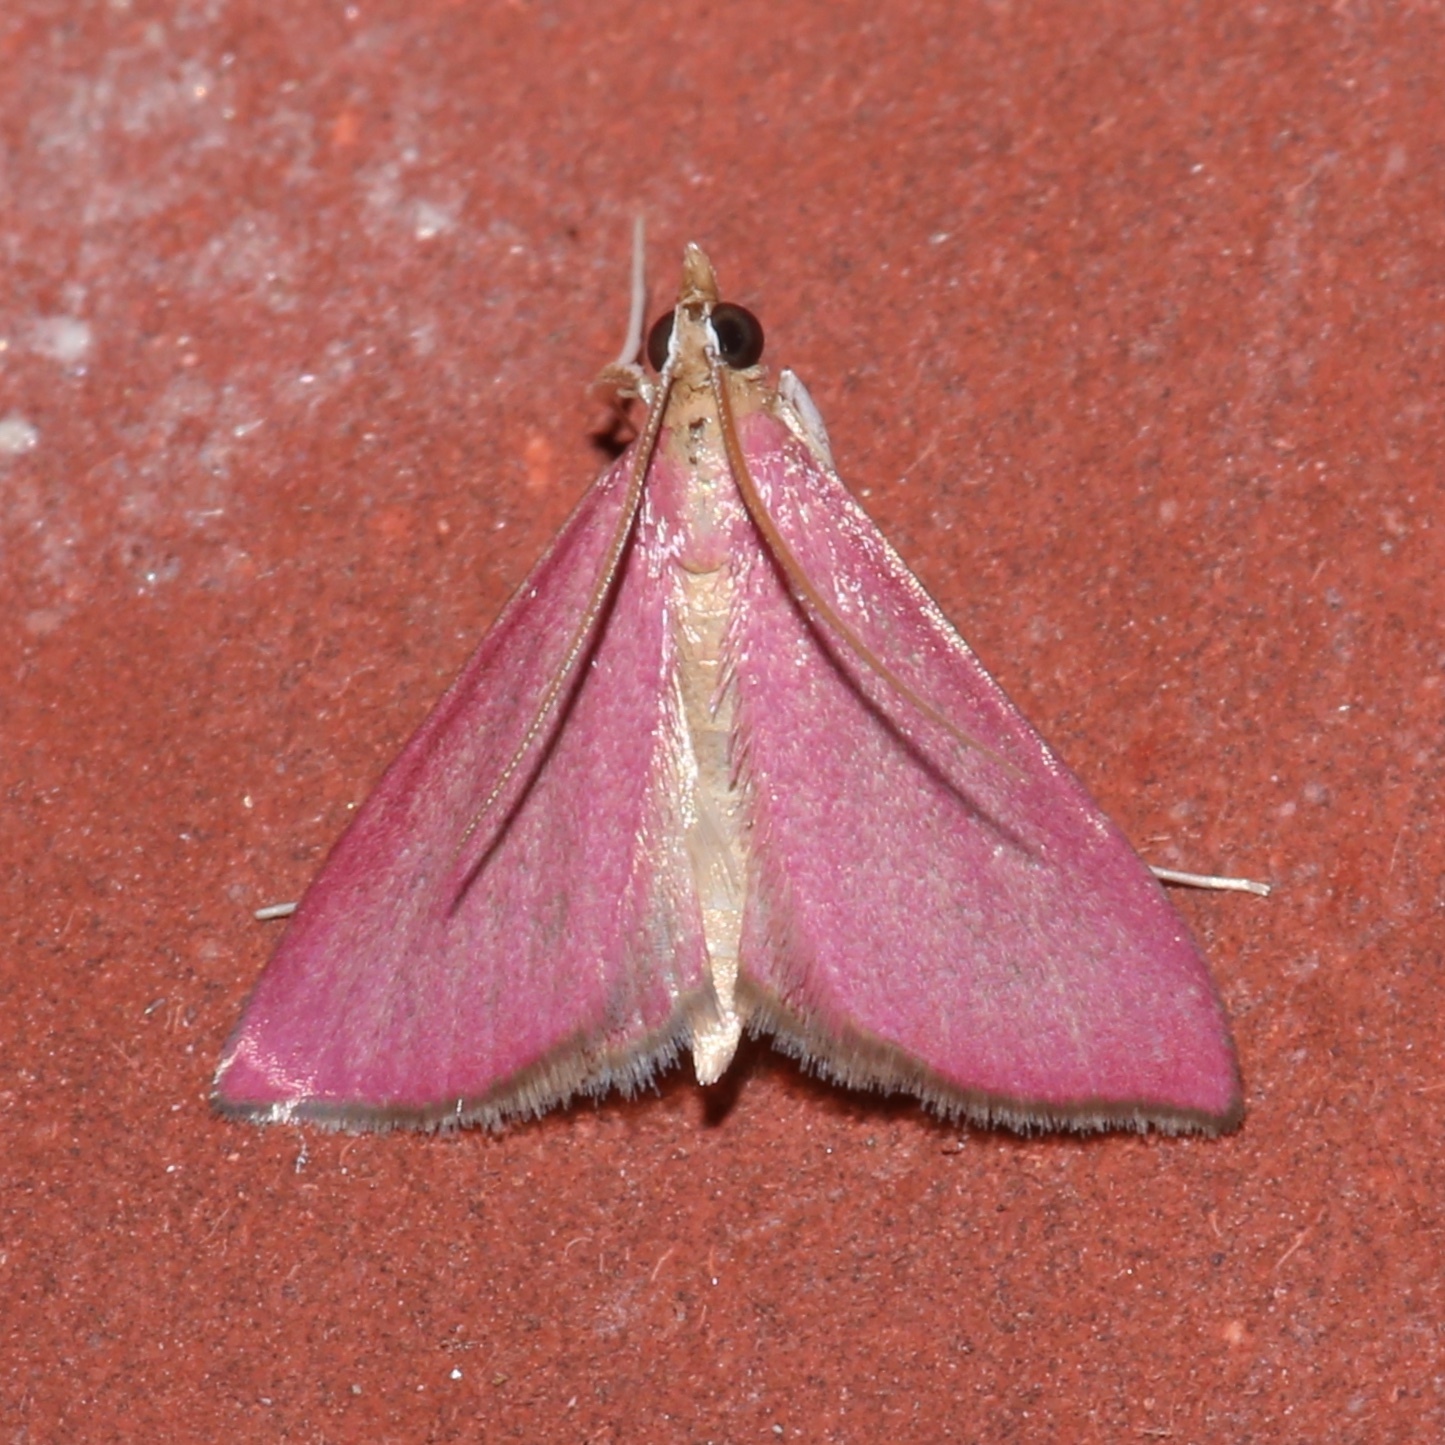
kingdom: Animalia
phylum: Arthropoda
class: Insecta
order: Lepidoptera
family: Crambidae
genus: Pyrausta
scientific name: Pyrausta inornatalis
